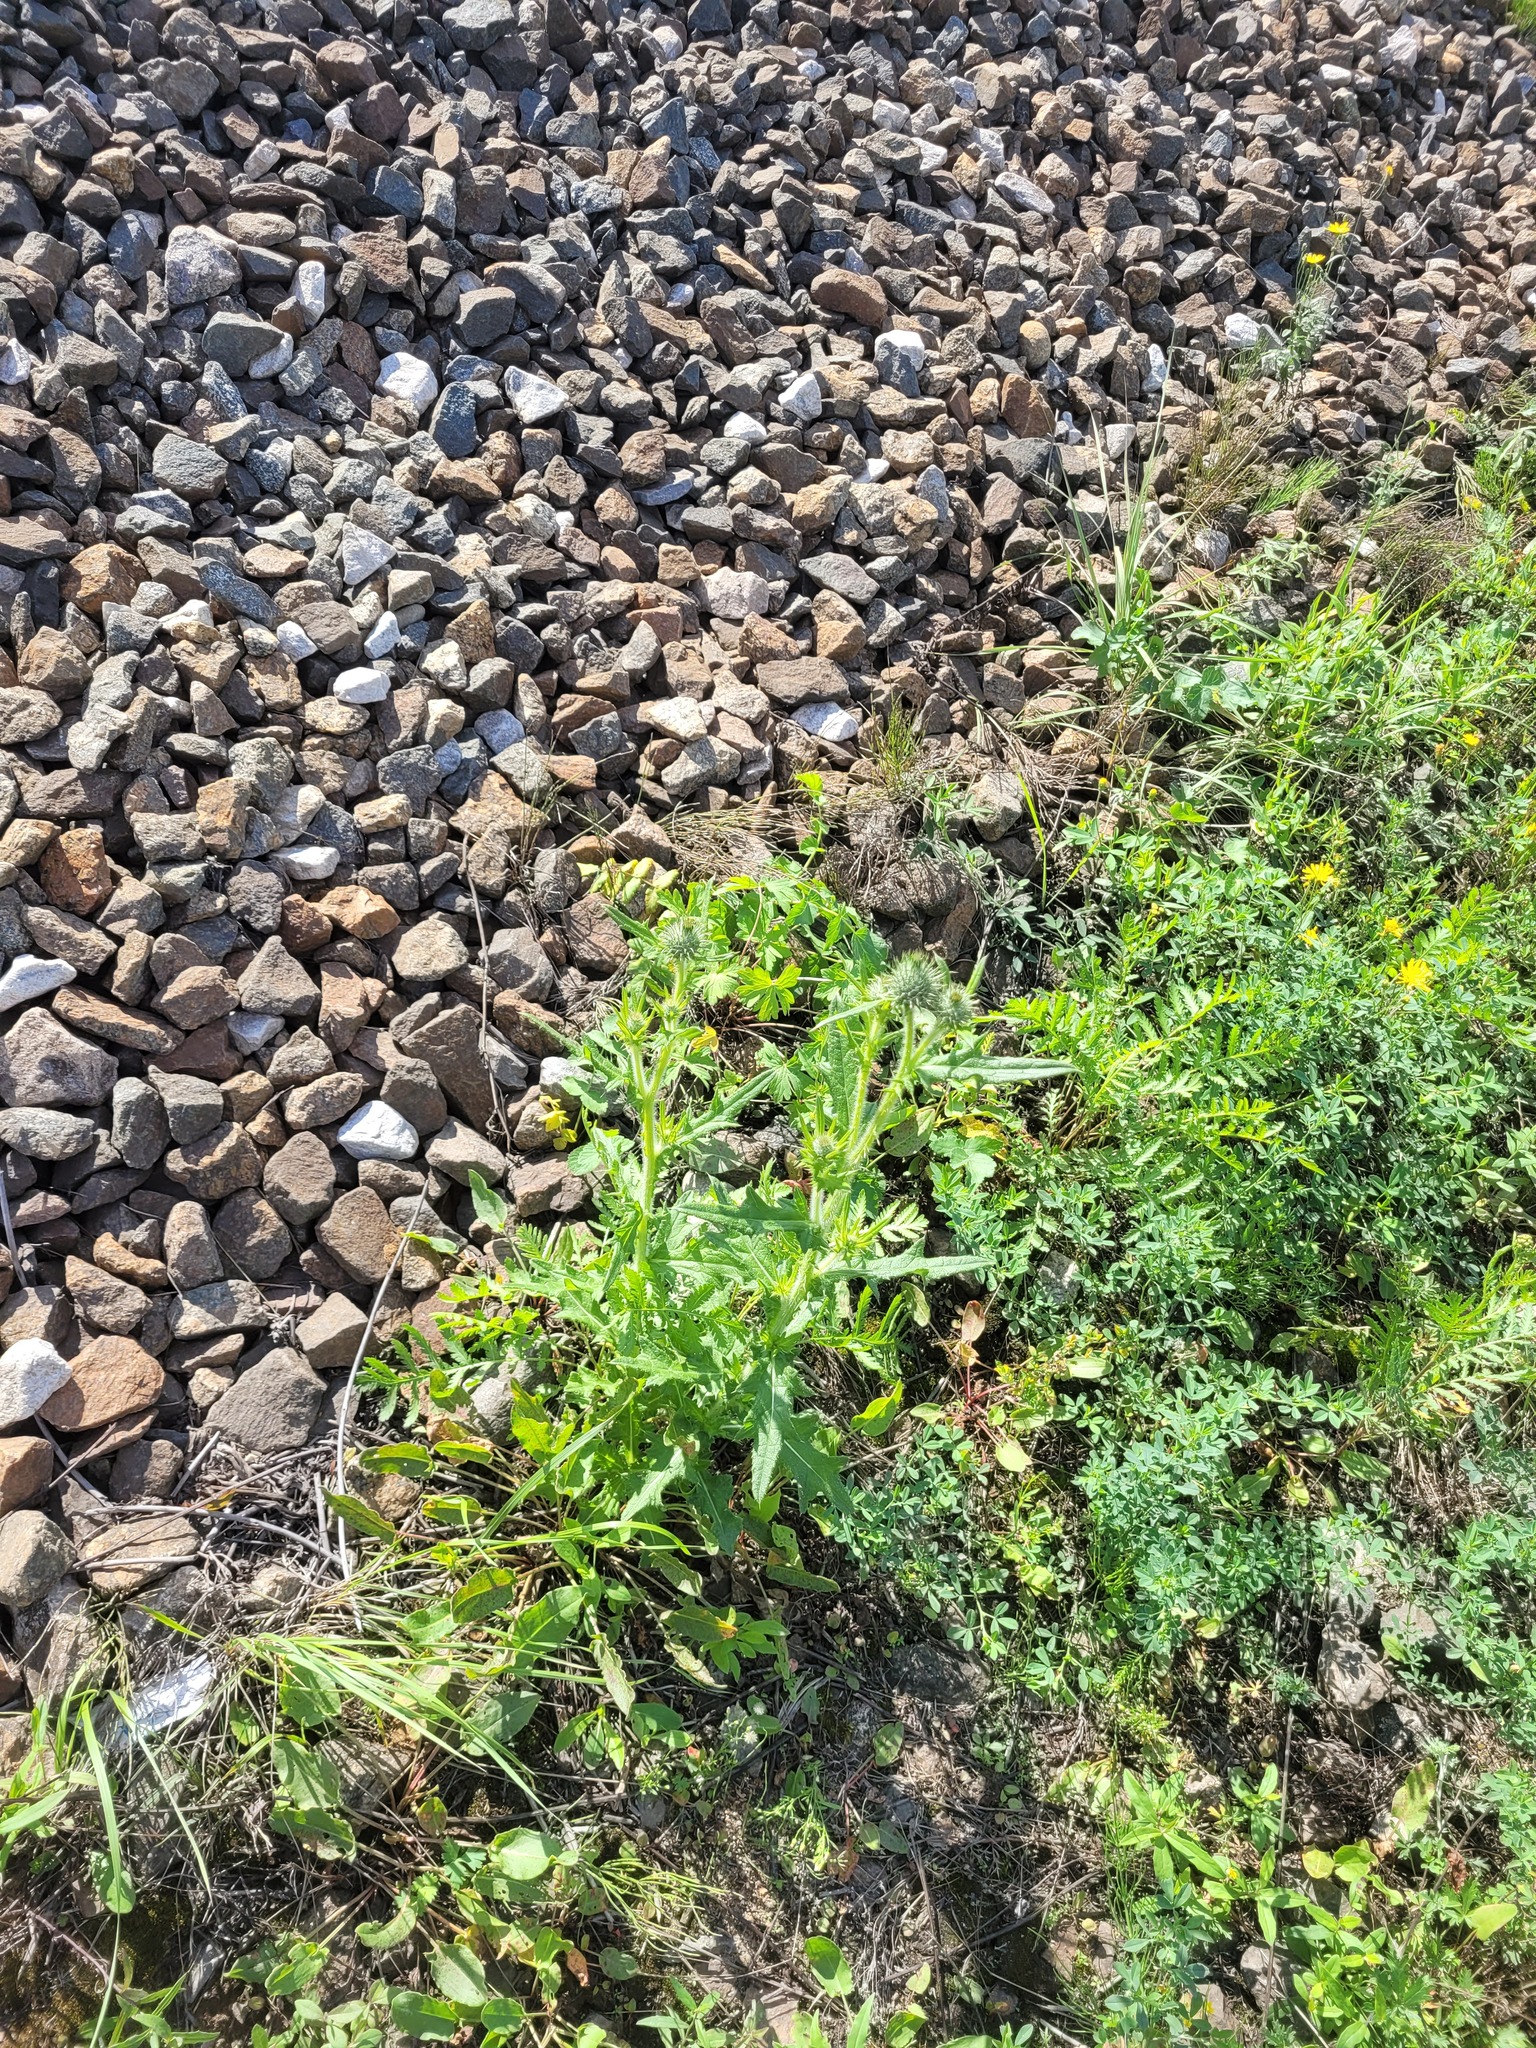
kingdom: Plantae
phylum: Tracheophyta
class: Magnoliopsida
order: Asterales
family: Asteraceae
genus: Cirsium
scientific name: Cirsium vulgare
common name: Bull thistle
